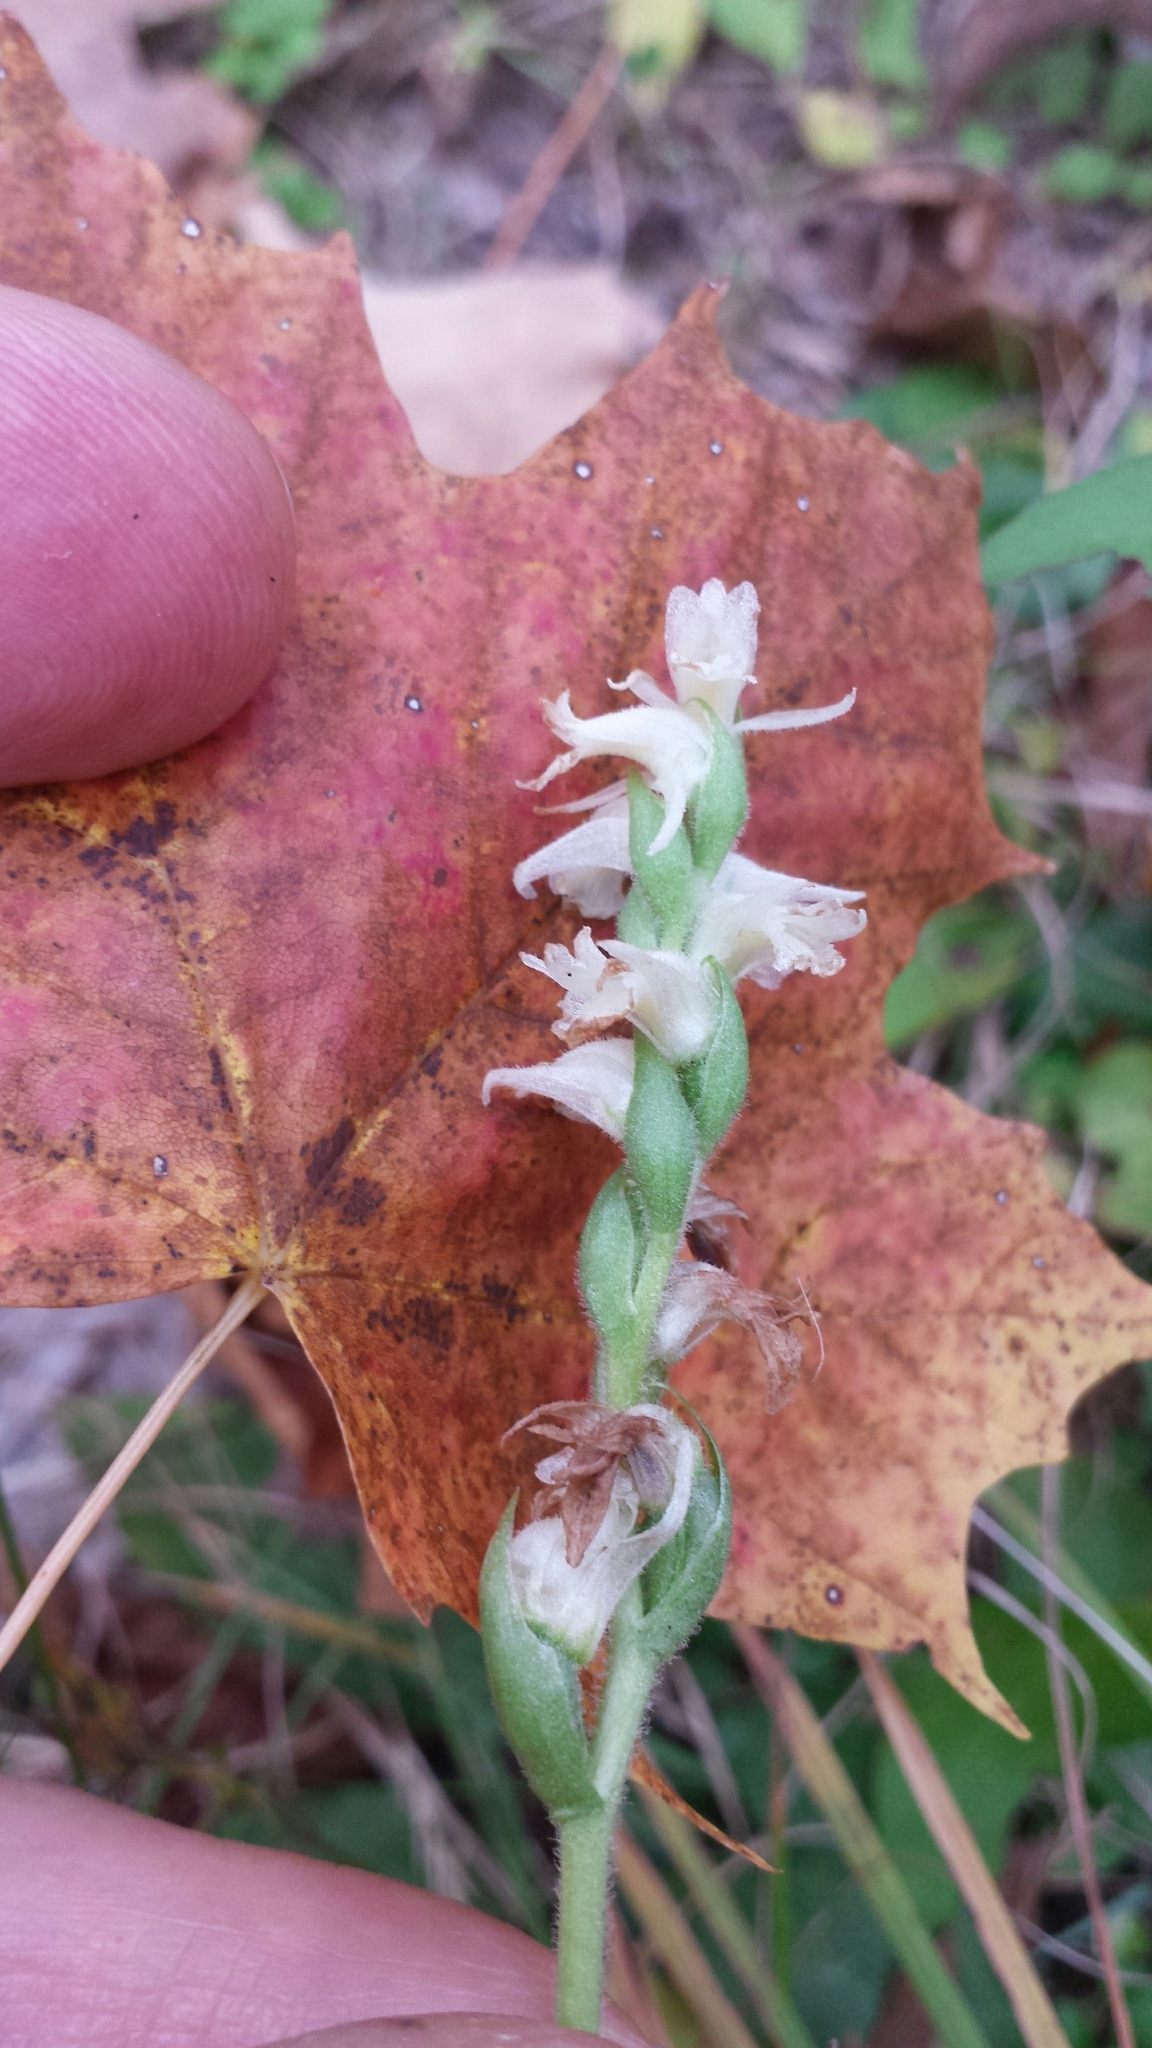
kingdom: Plantae
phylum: Tracheophyta
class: Liliopsida
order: Asparagales
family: Orchidaceae
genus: Spiranthes
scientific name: Spiranthes ochroleuca
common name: Yellow ladies'-tresses
